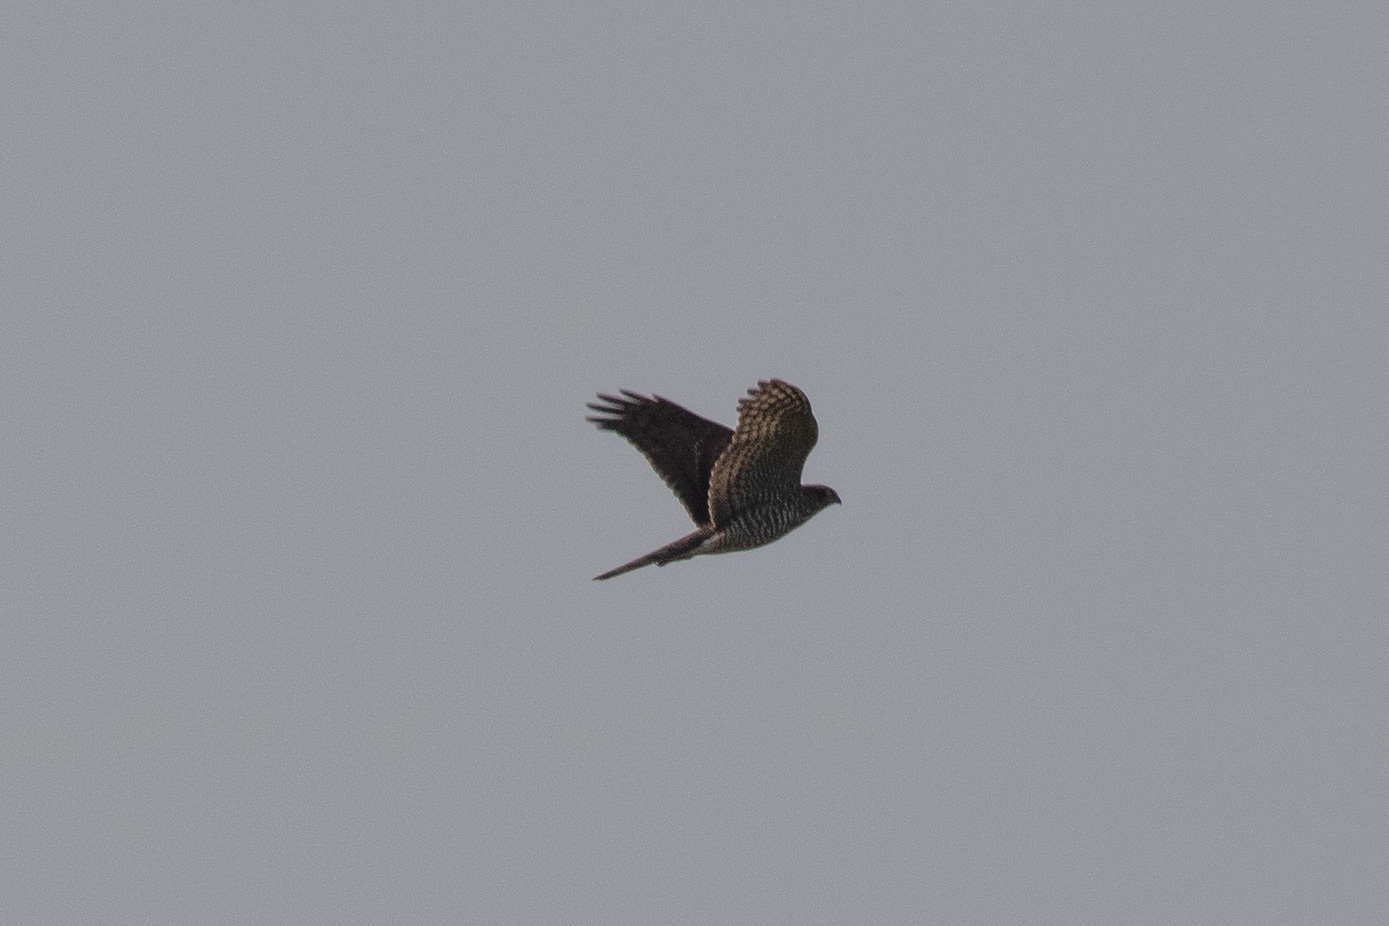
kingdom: Animalia
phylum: Chordata
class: Aves
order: Accipitriformes
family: Accipitridae
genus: Accipiter
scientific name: Accipiter nisus
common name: Eurasian sparrowhawk
